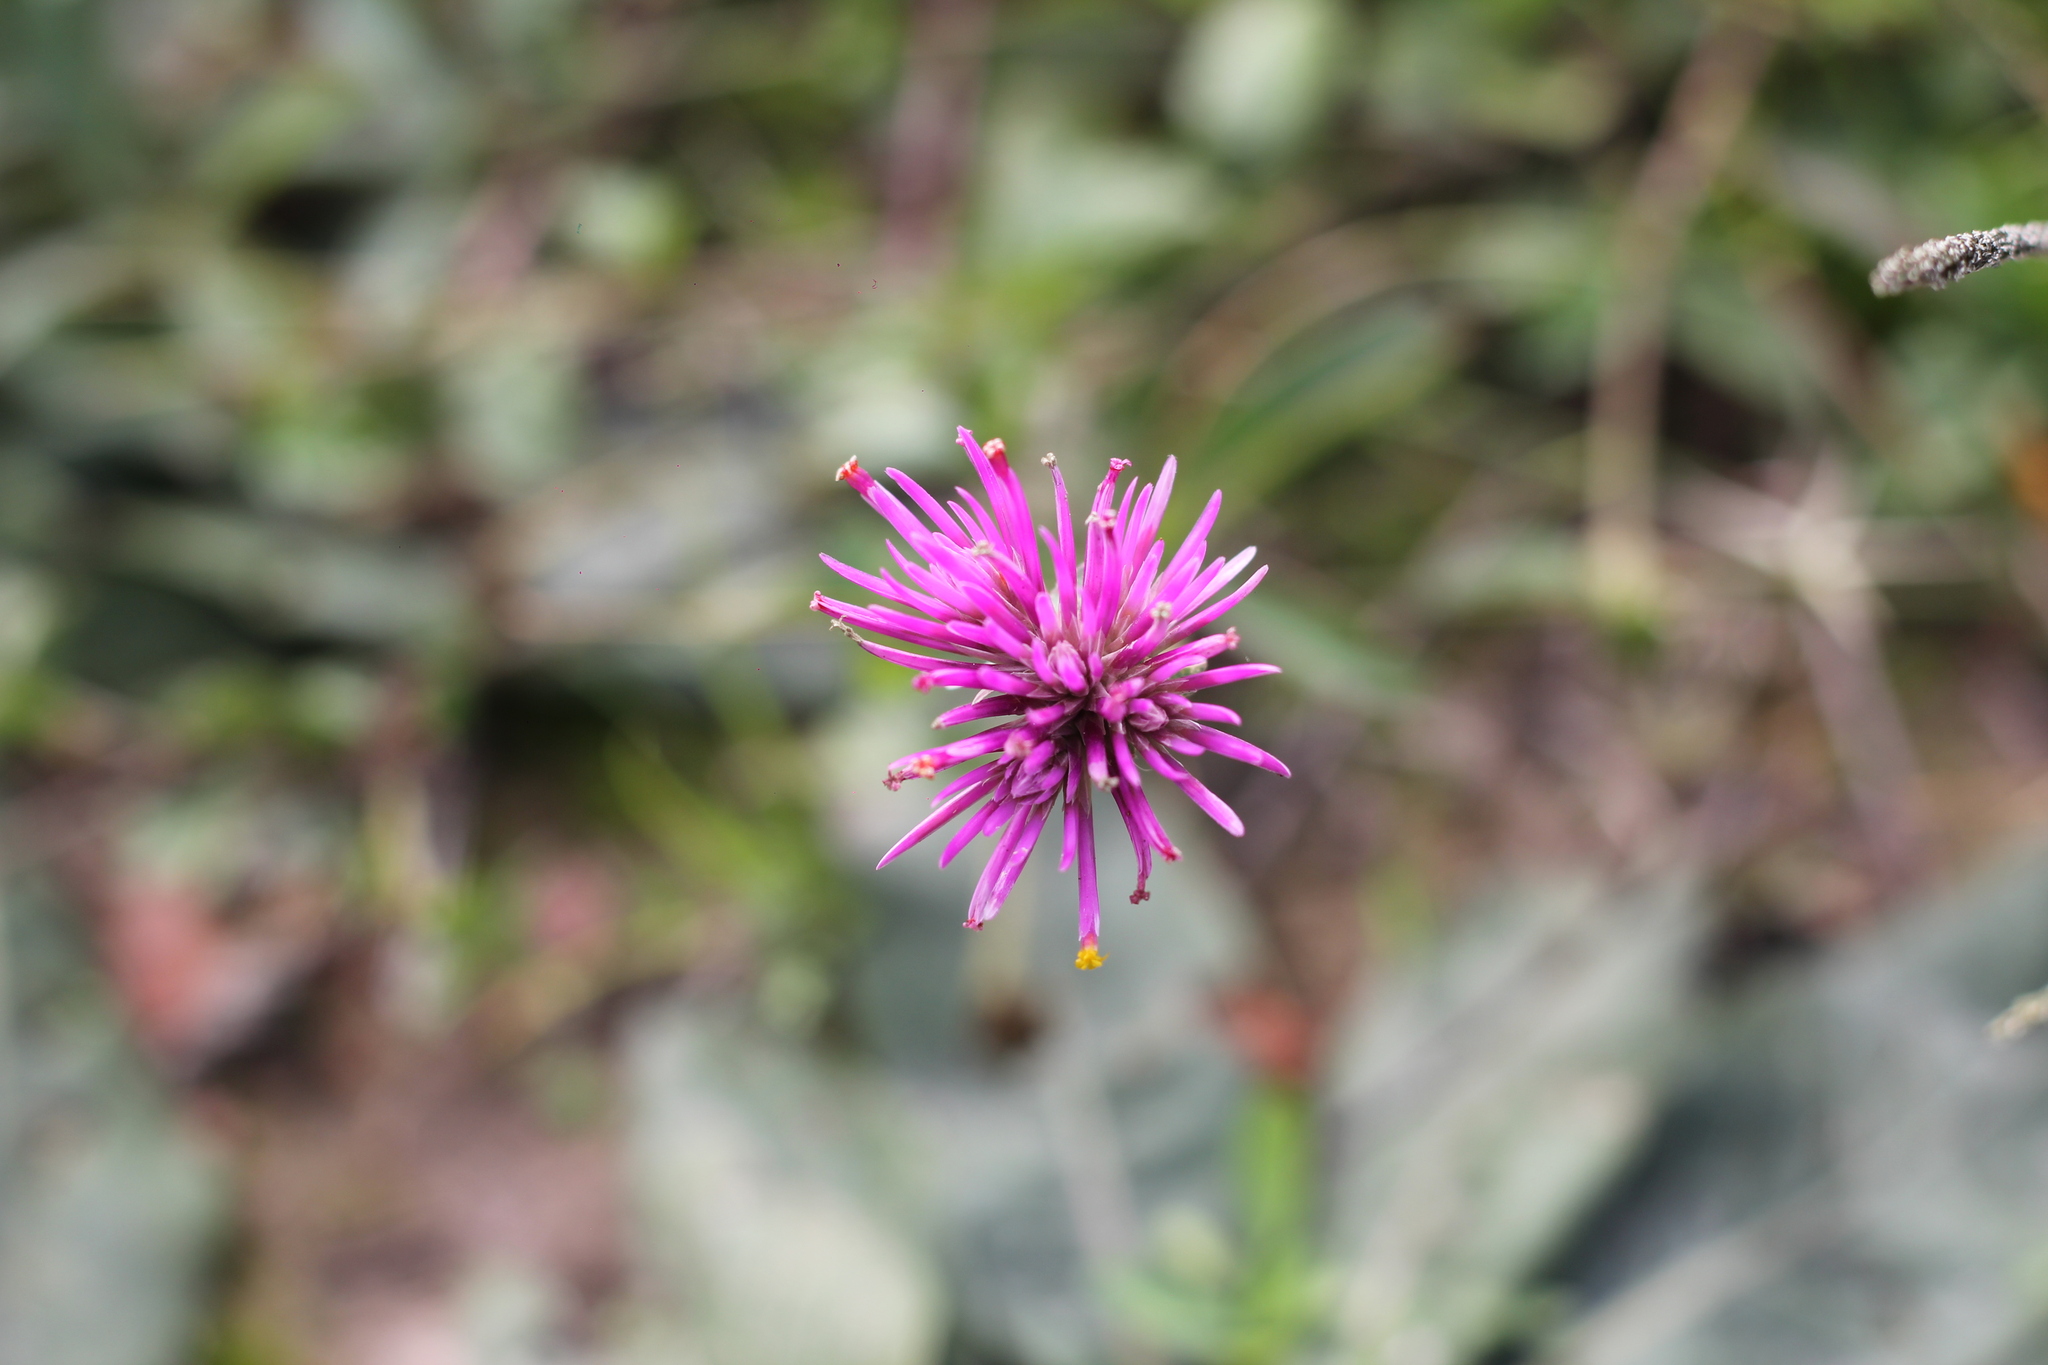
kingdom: Plantae
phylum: Tracheophyta
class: Magnoliopsida
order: Caryophyllales
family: Amaranthaceae
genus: Gomphrena
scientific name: Gomphrena pulchella
